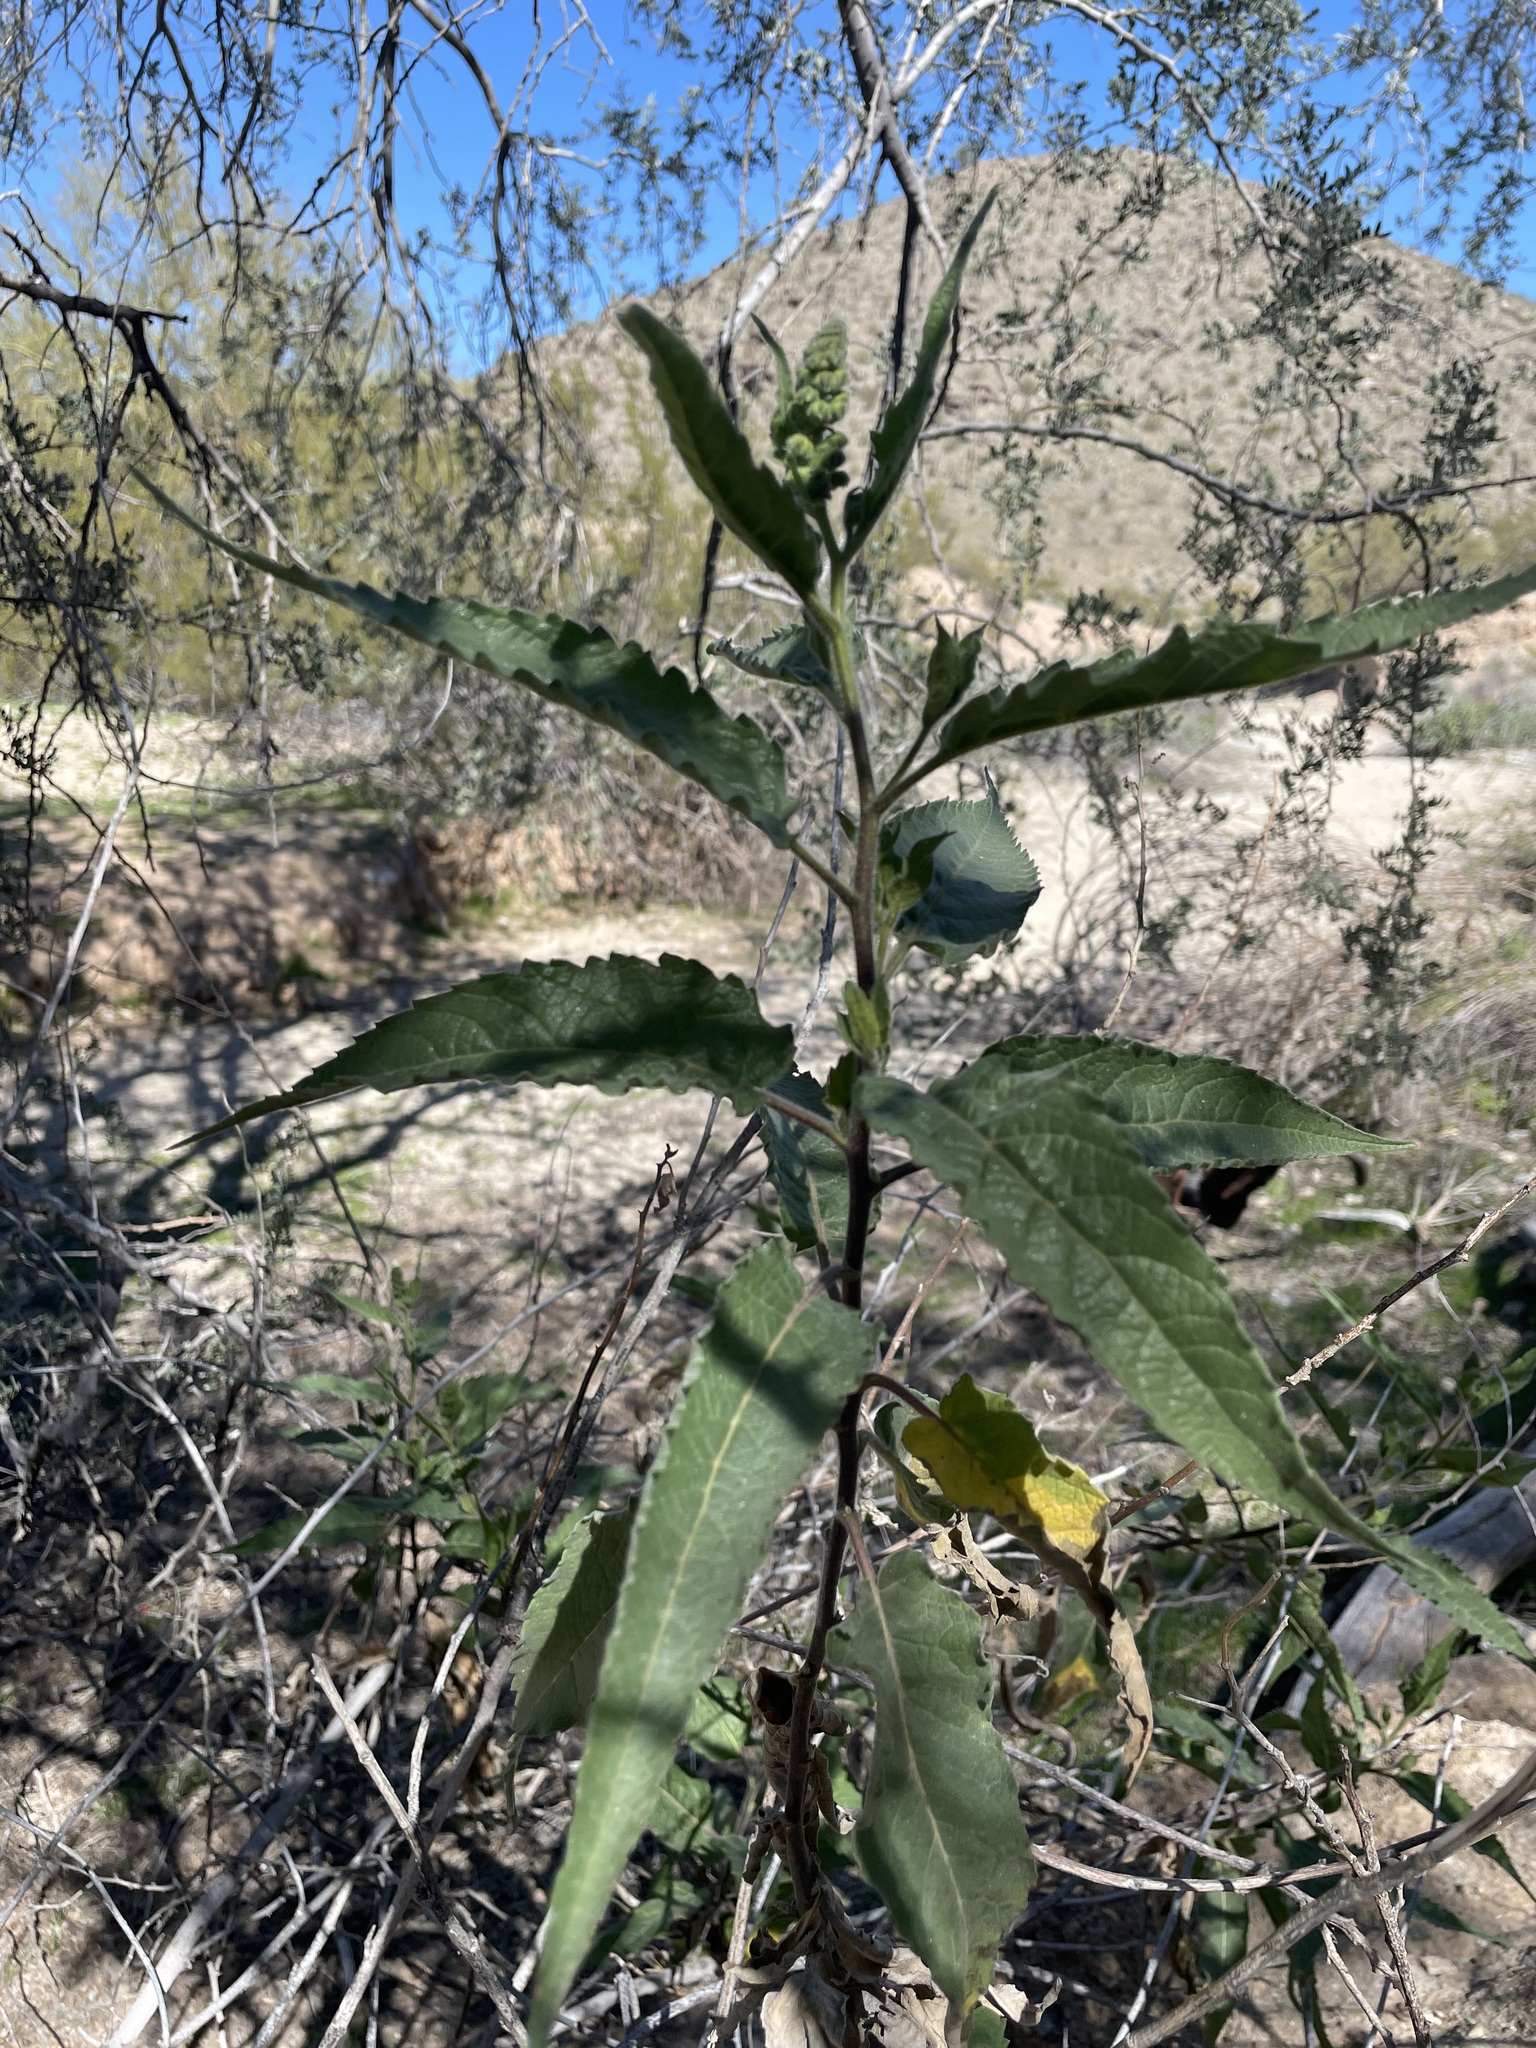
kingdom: Plantae
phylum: Tracheophyta
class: Magnoliopsida
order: Asterales
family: Asteraceae
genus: Ambrosia
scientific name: Ambrosia ambrosioides
